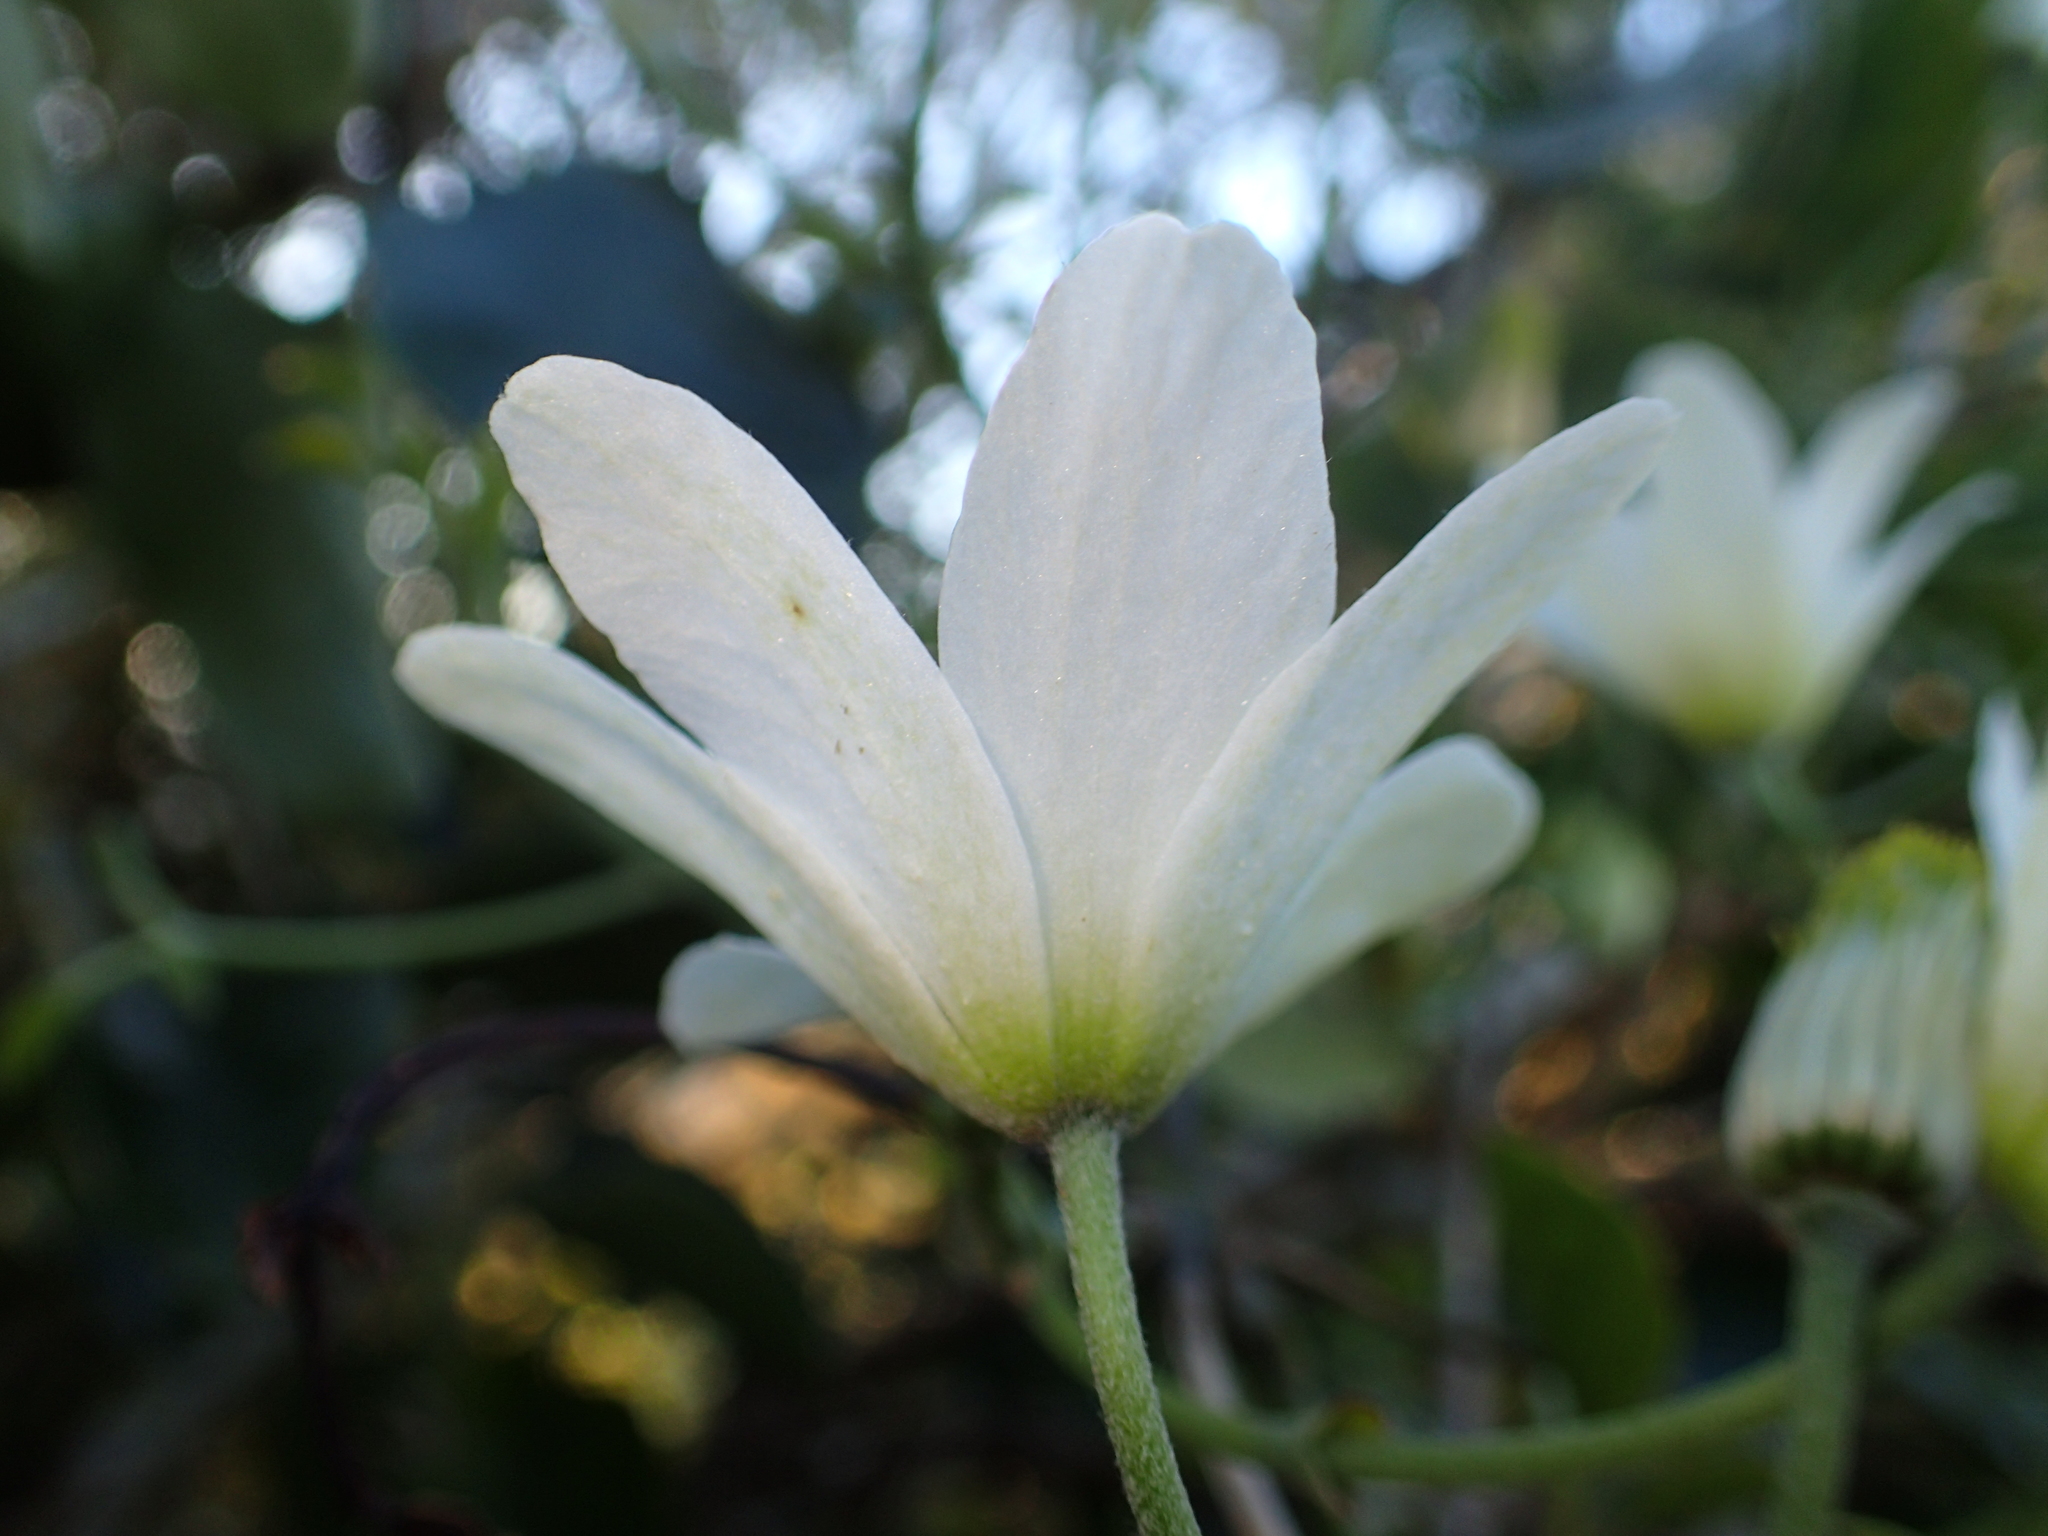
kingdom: Plantae
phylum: Tracheophyta
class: Magnoliopsida
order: Ranunculales
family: Ranunculaceae
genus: Clematis
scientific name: Clematis paniculata
